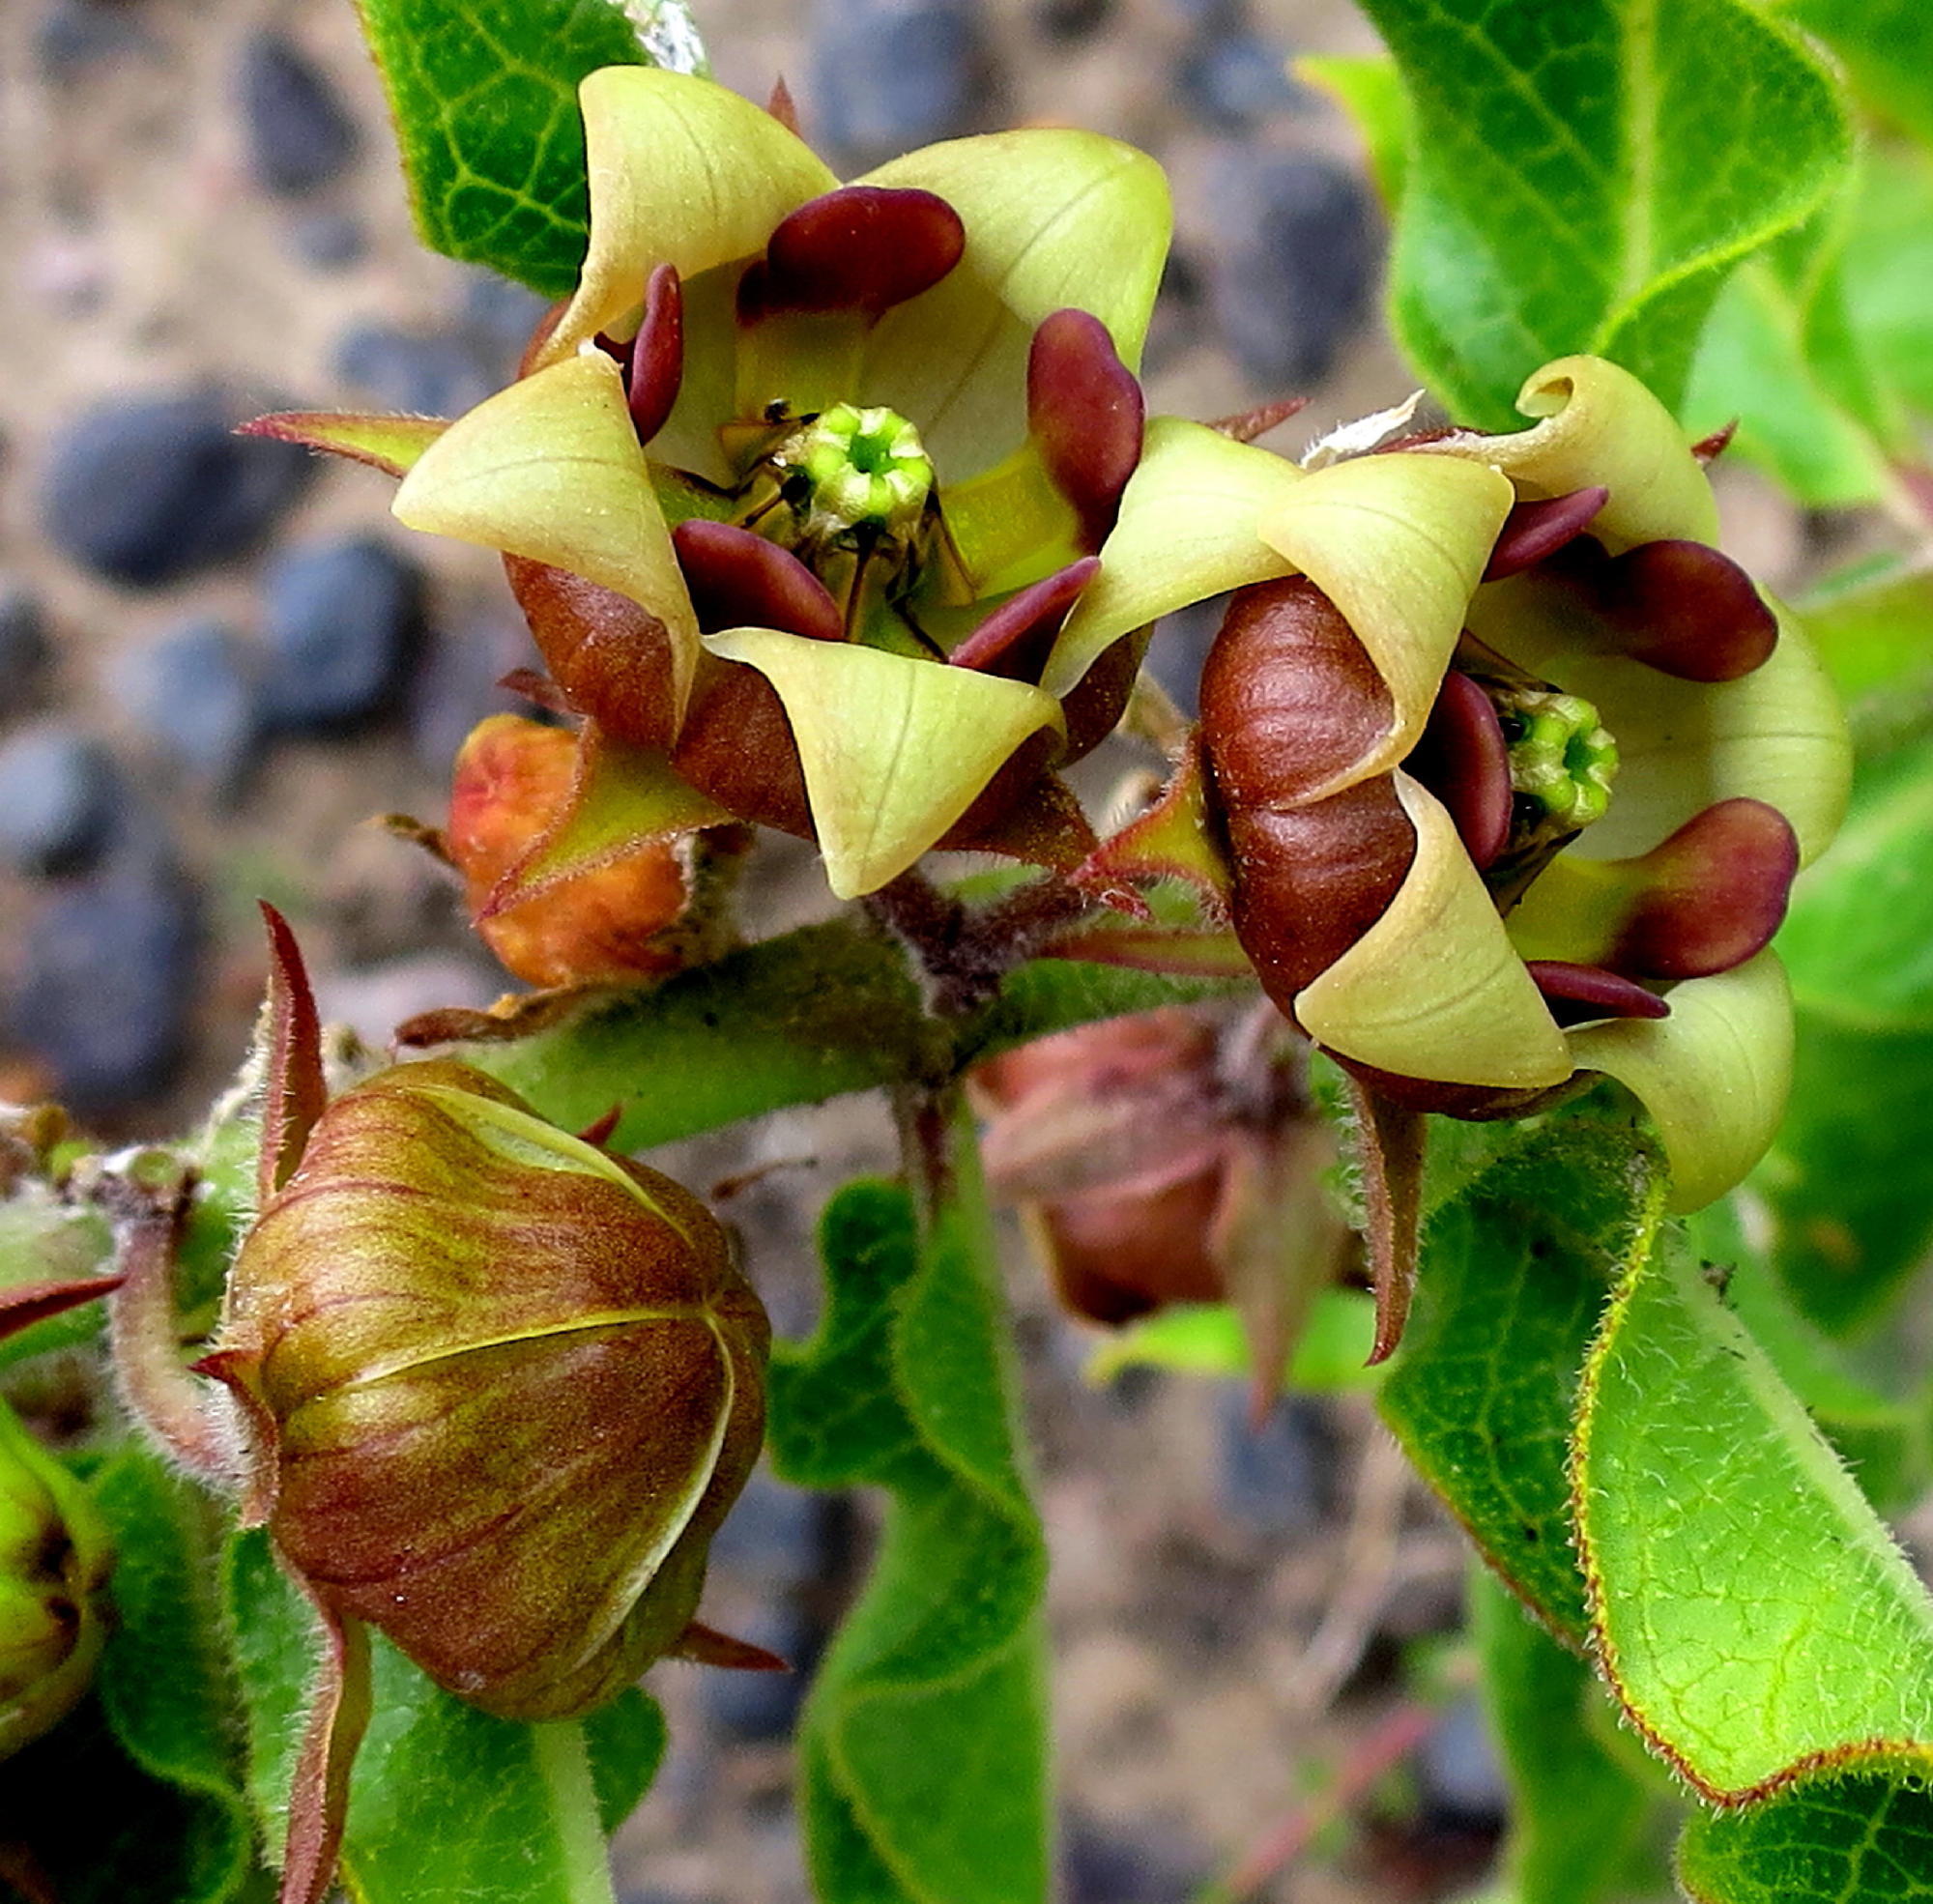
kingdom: Plantae
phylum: Tracheophyta
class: Magnoliopsida
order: Gentianales
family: Apocynaceae
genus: Pachycarpus
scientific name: Pachycarpus dealbatus
